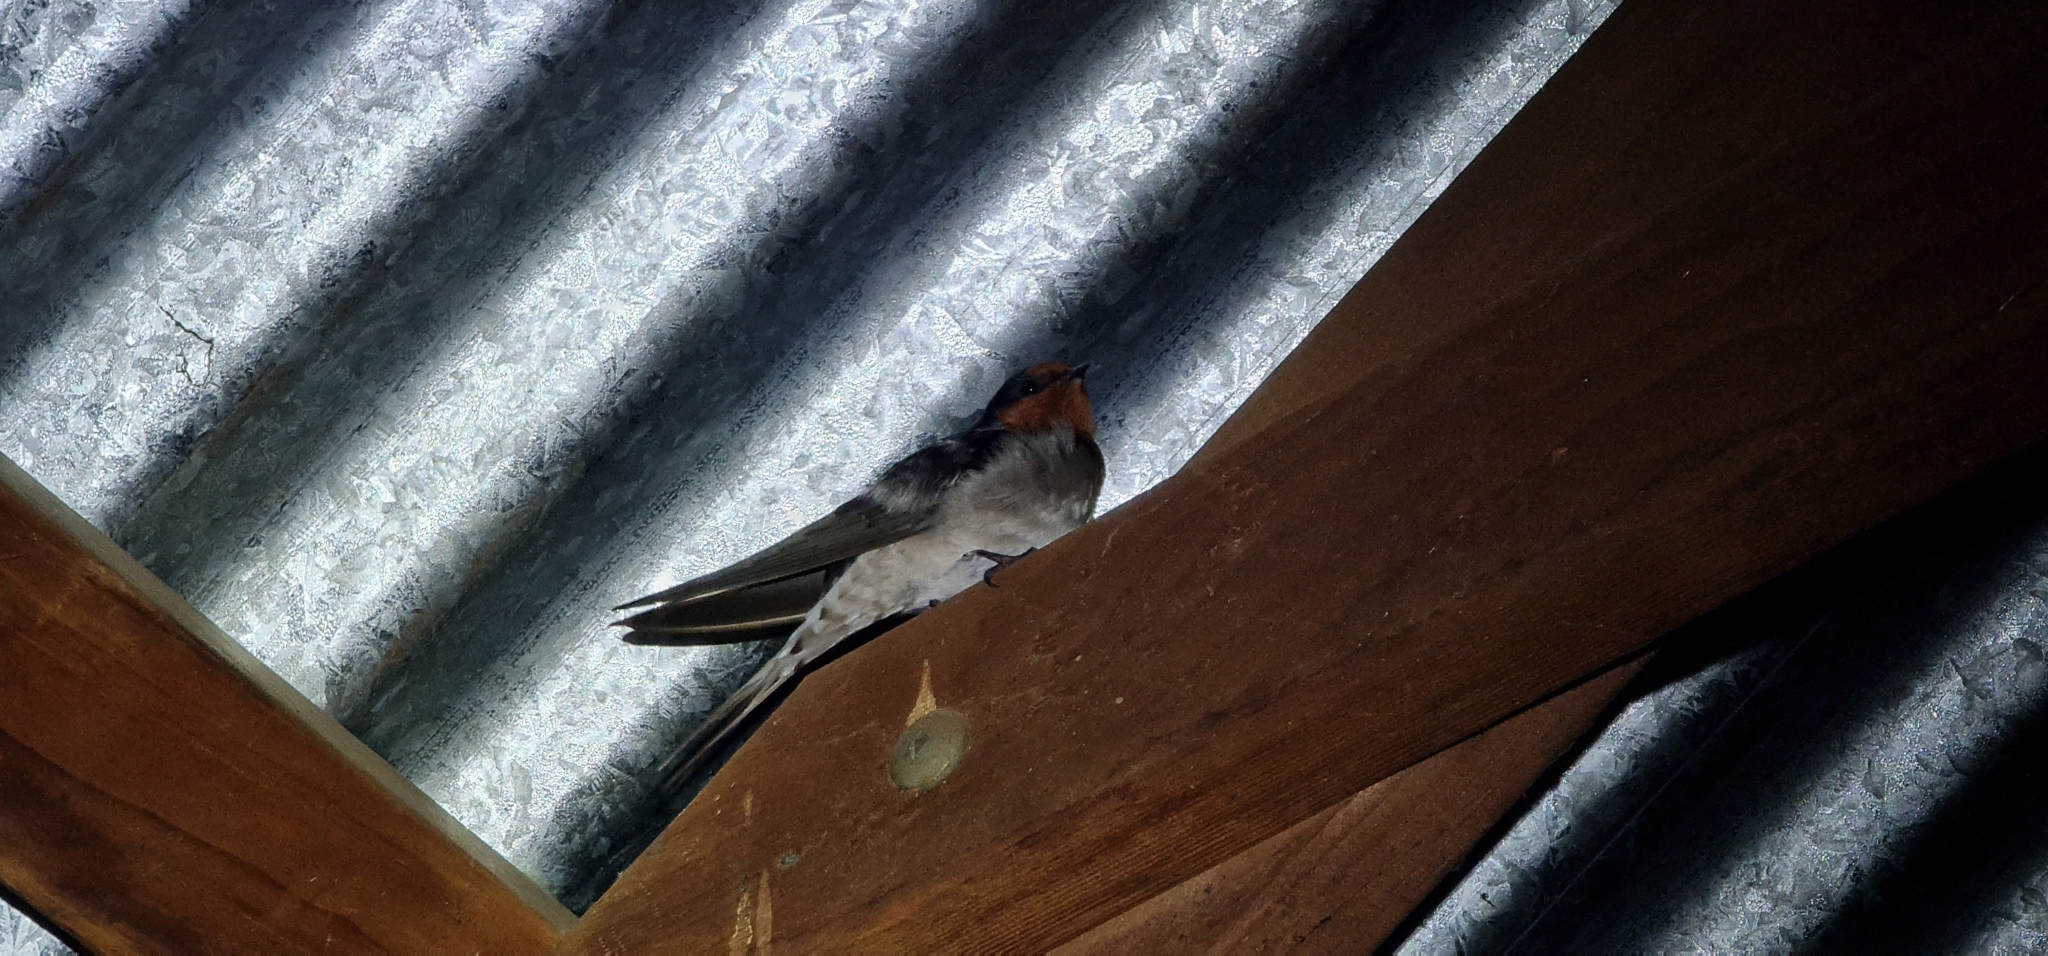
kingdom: Animalia
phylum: Chordata
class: Aves
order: Passeriformes
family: Hirundinidae
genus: Hirundo
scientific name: Hirundo neoxena
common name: Welcome swallow
